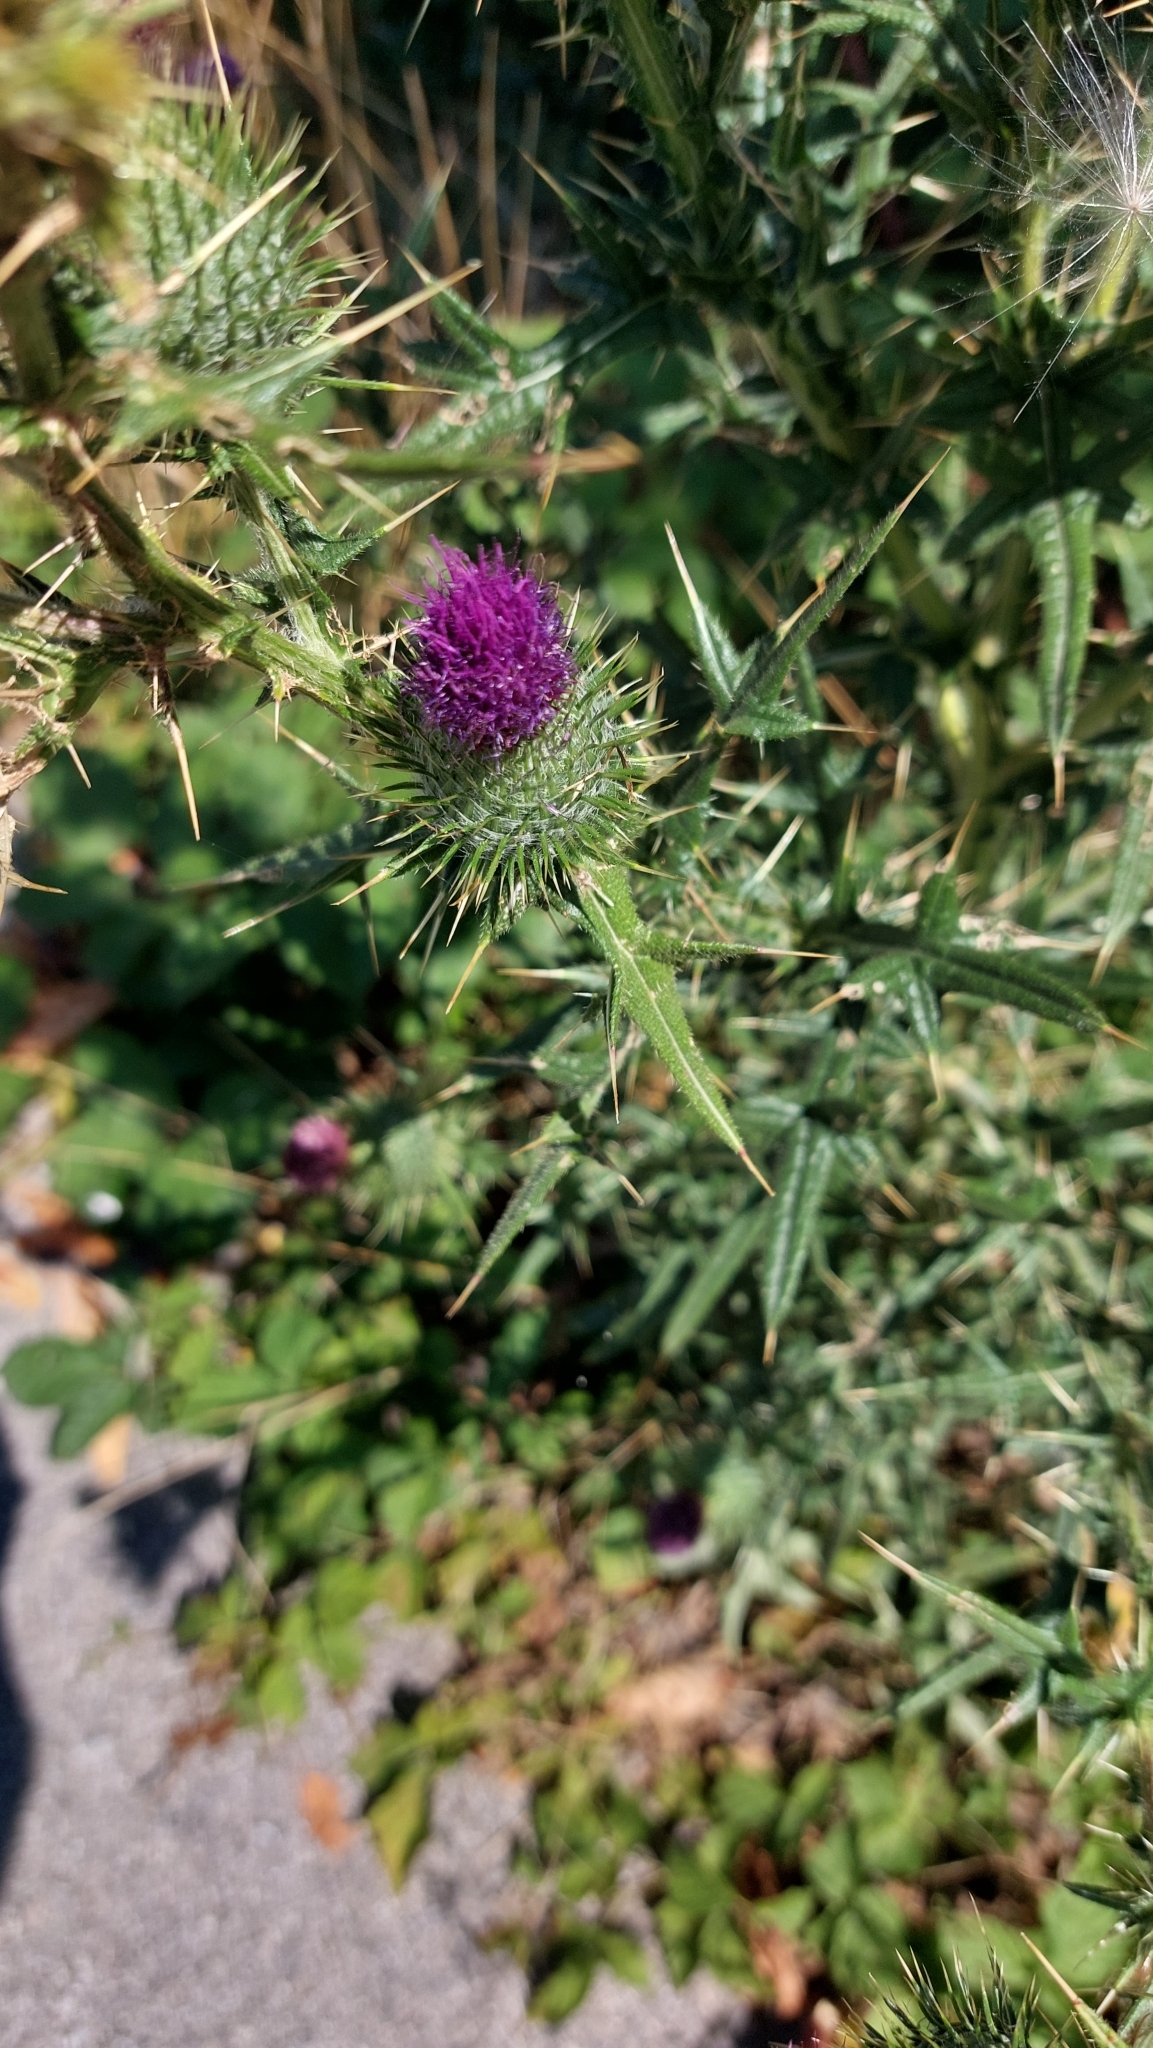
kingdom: Plantae
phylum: Tracheophyta
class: Magnoliopsida
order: Asterales
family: Asteraceae
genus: Cirsium
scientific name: Cirsium vulgare
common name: Bull thistle
